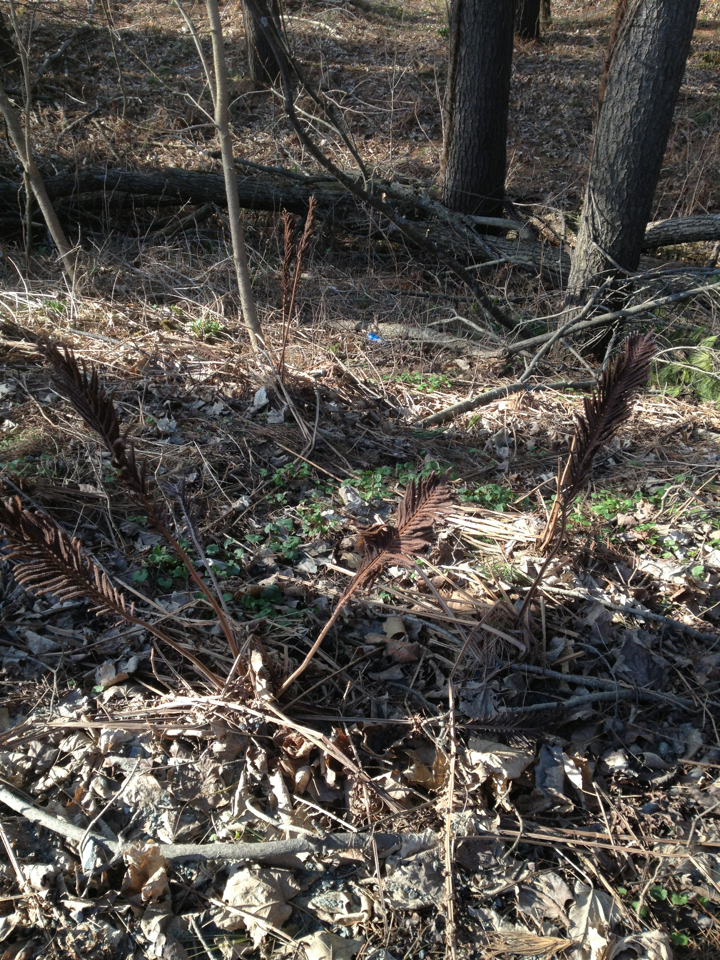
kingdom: Plantae
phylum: Tracheophyta
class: Polypodiopsida
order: Polypodiales
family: Onocleaceae
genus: Matteuccia
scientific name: Matteuccia struthiopteris
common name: Ostrich fern
